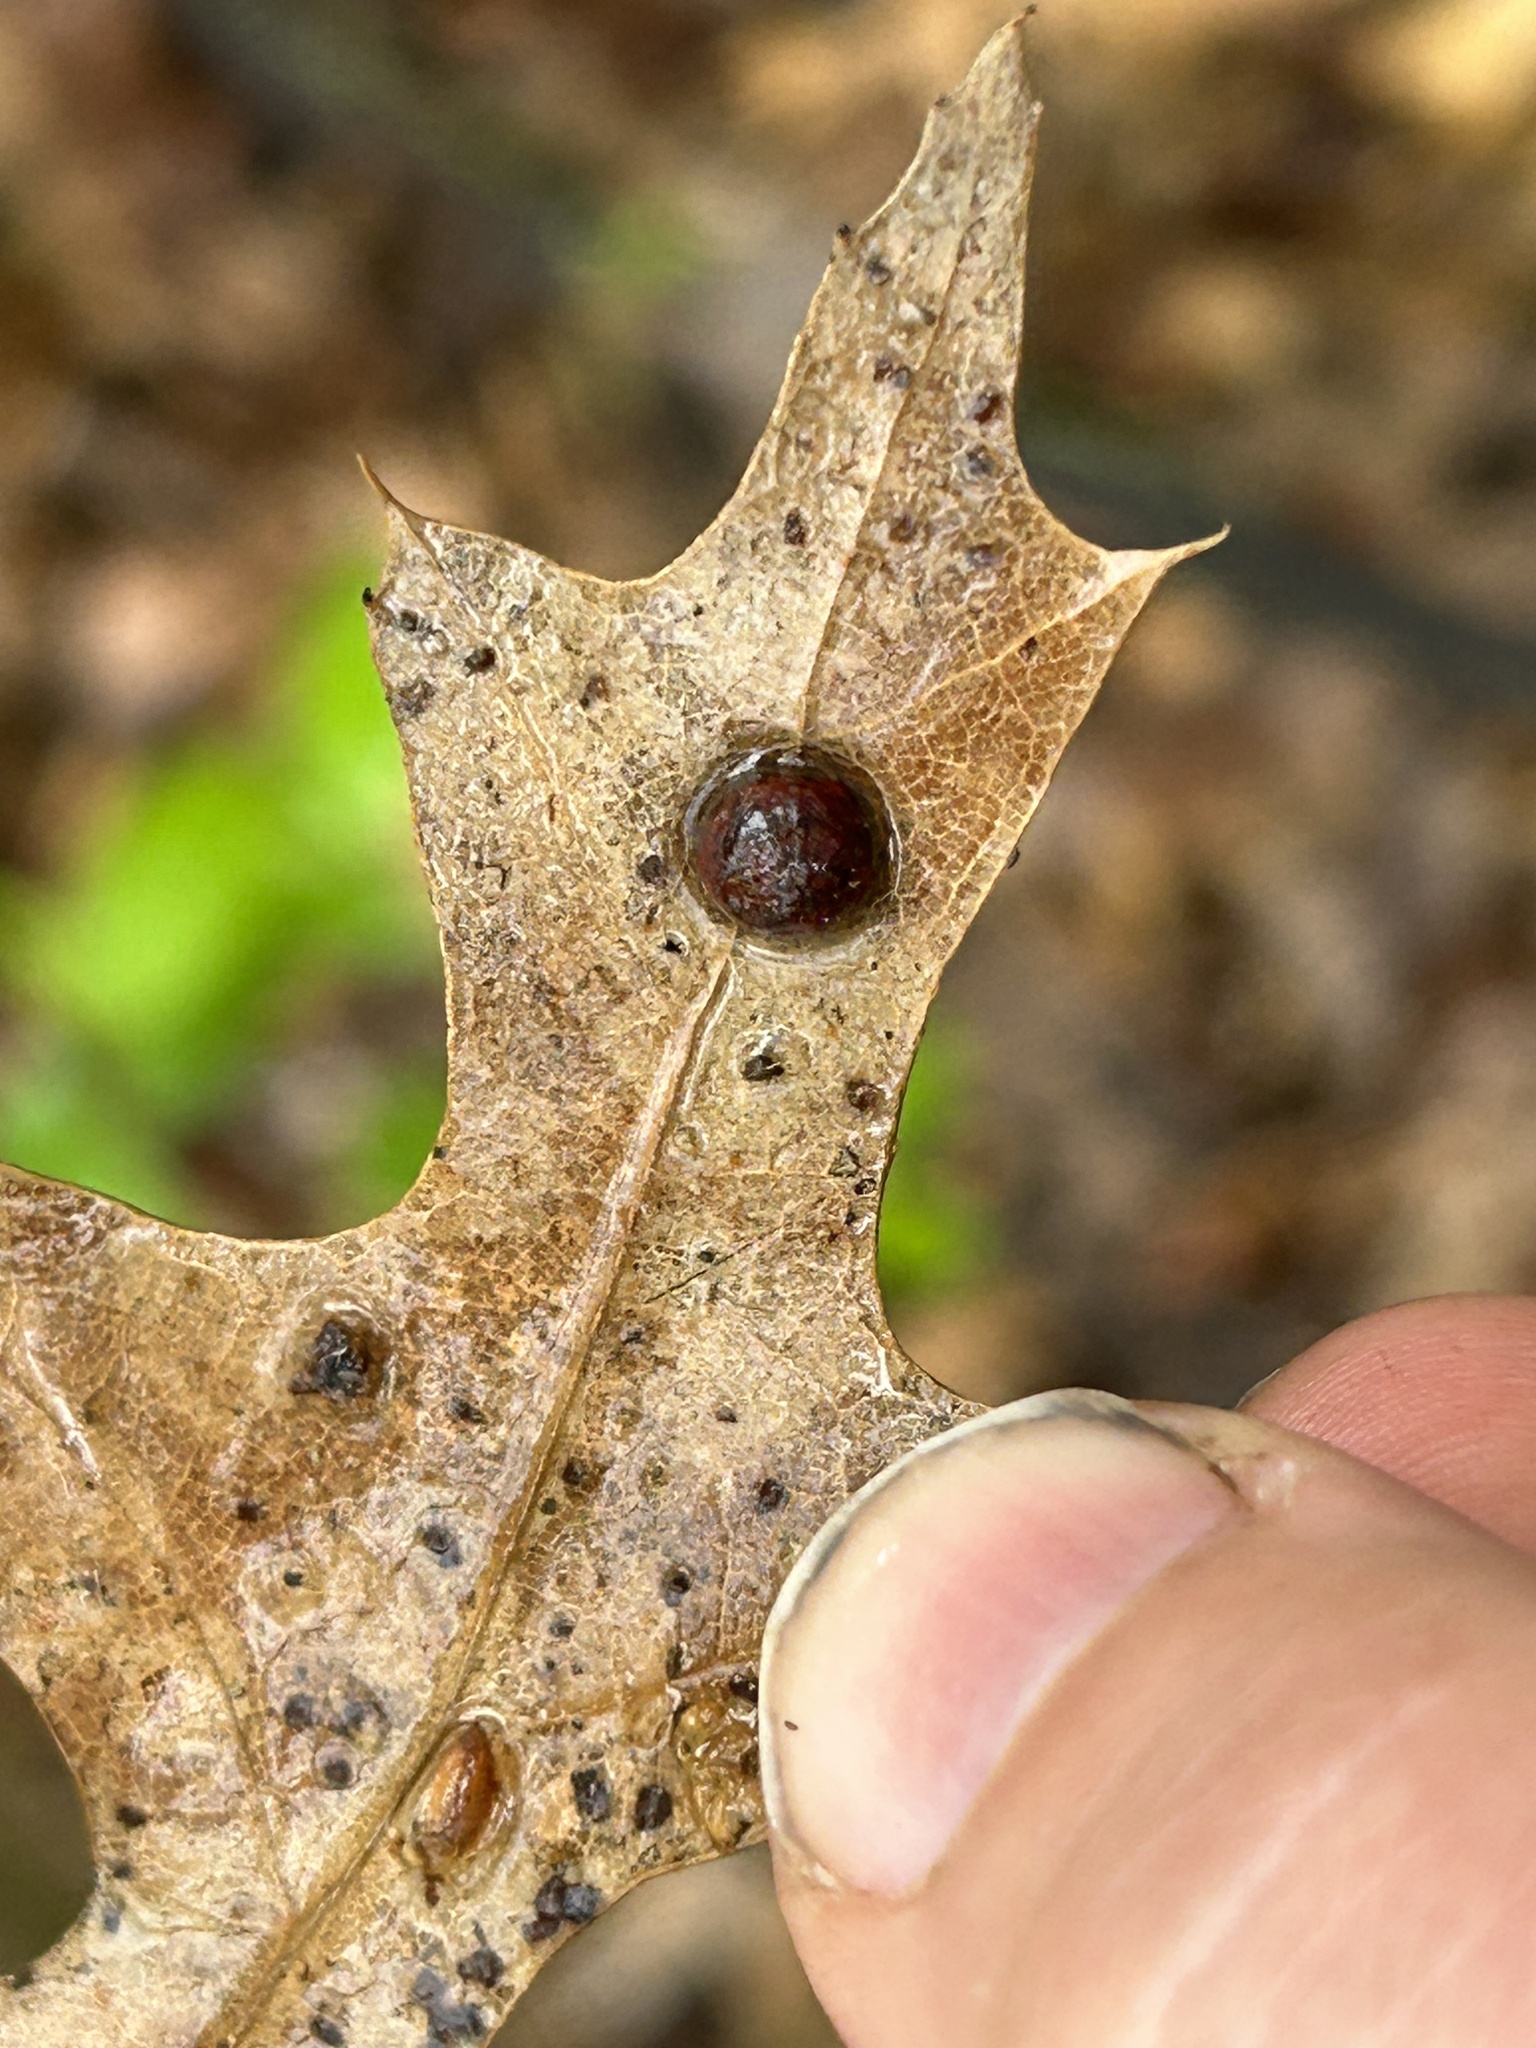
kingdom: Animalia
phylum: Arthropoda
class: Insecta
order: Diptera
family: Cecidomyiidae
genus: Polystepha
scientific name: Polystepha pilulae
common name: Oak leaf gall midge
